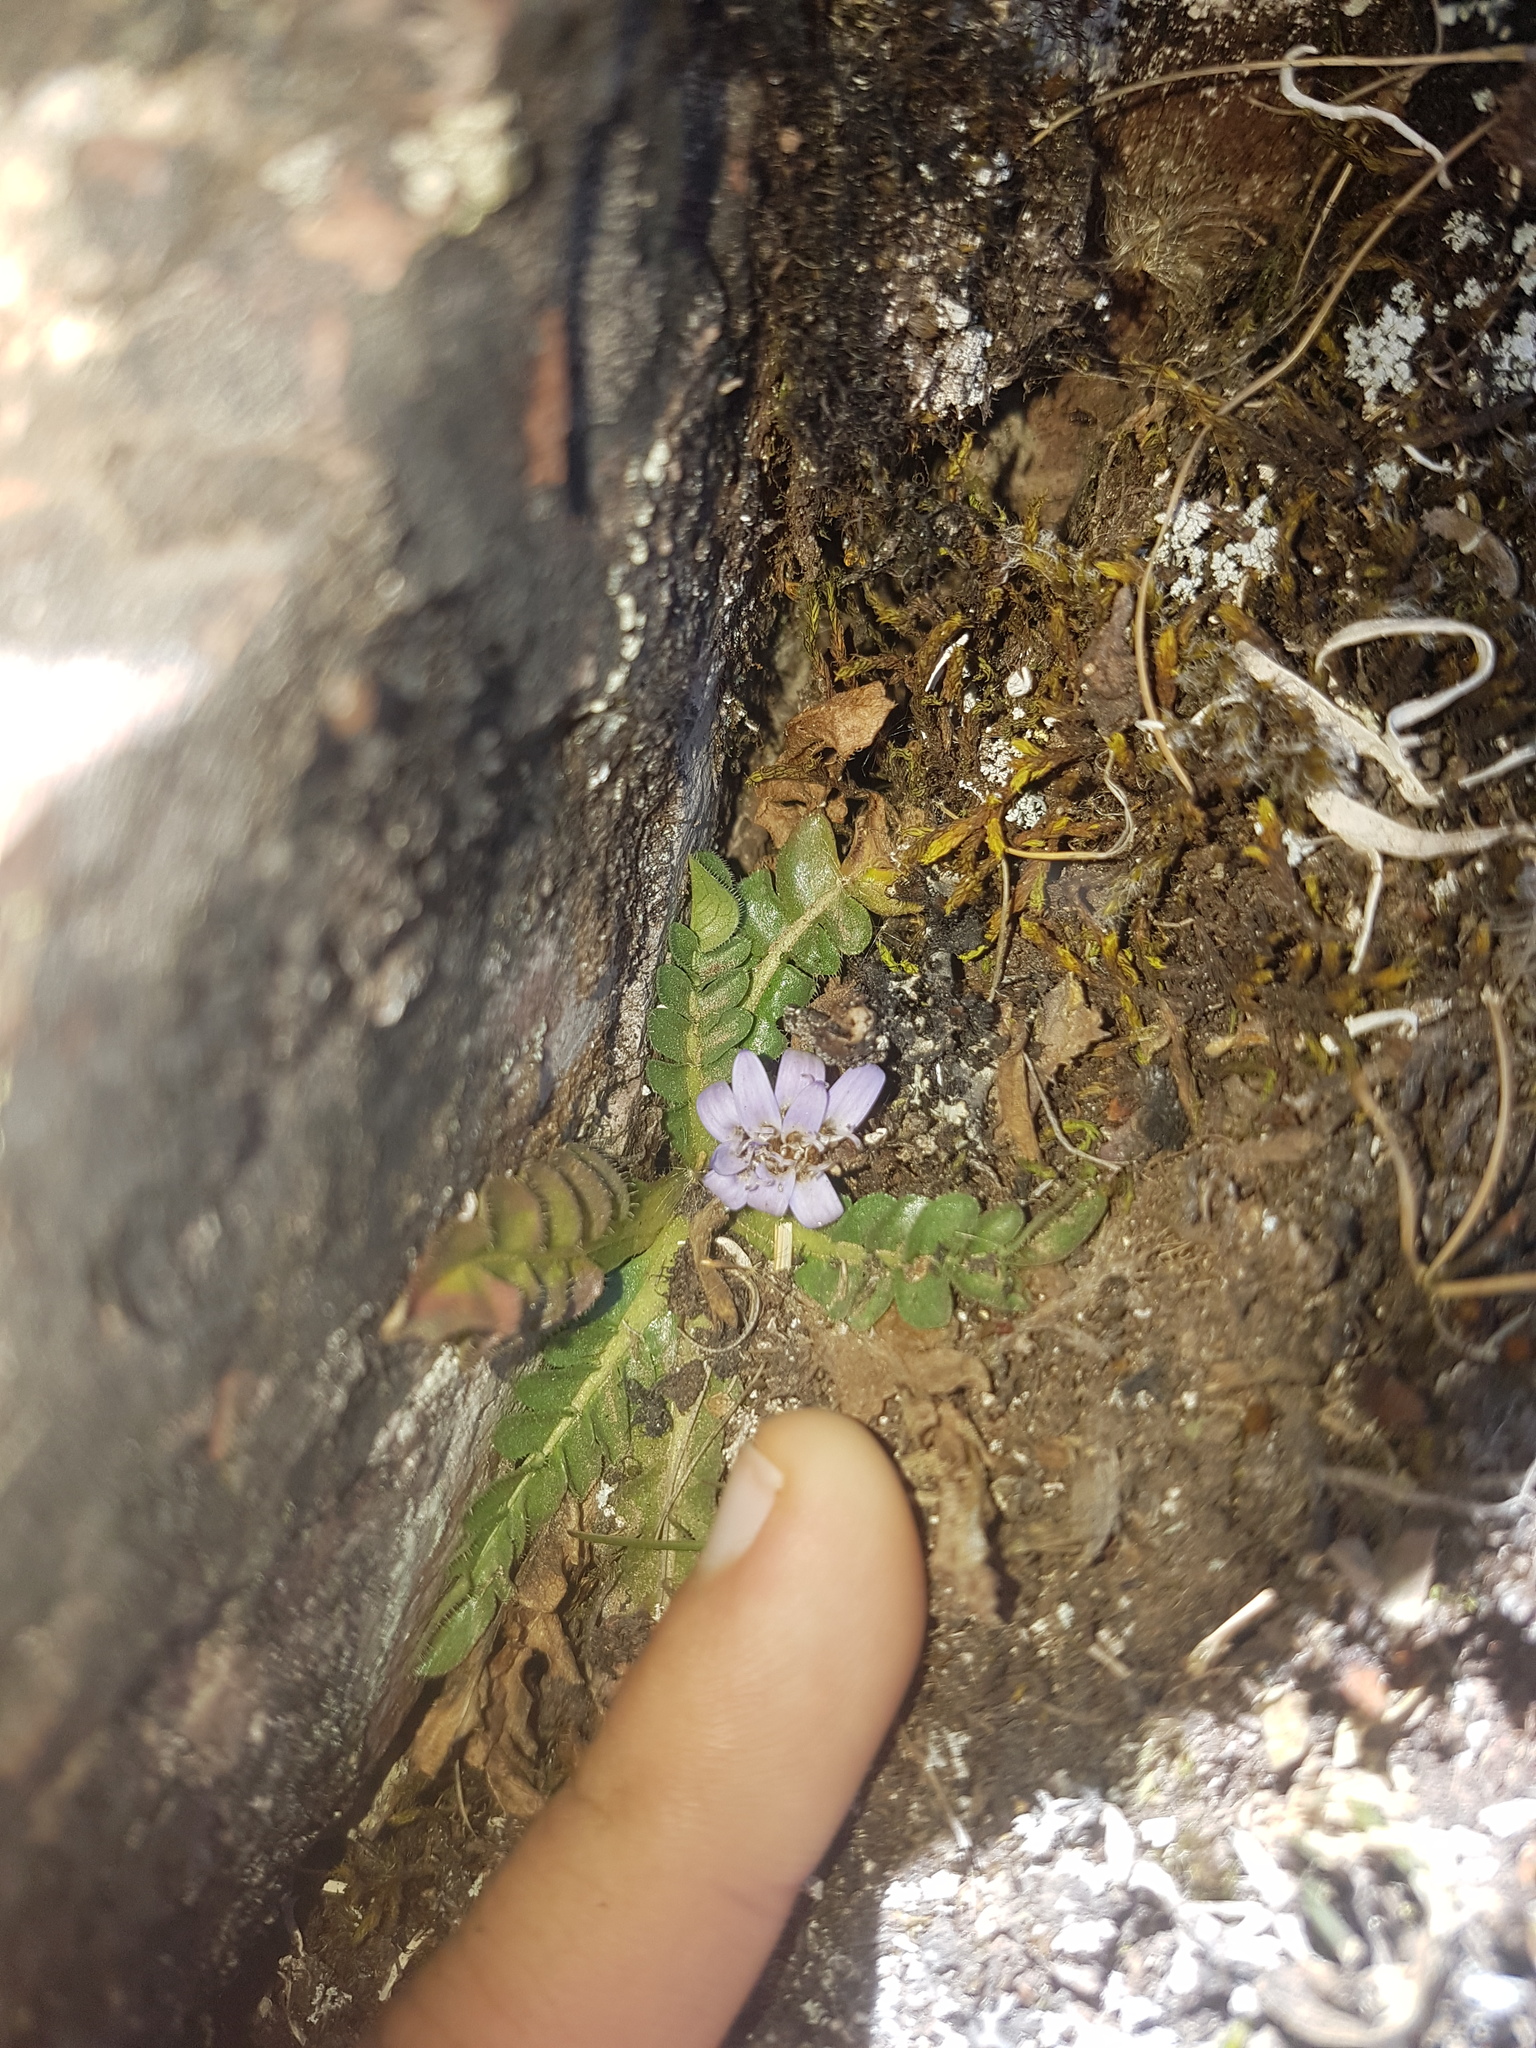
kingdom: Plantae
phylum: Tracheophyta
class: Magnoliopsida
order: Asterales
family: Asteraceae
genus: Perezia
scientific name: Perezia pinnatifida
